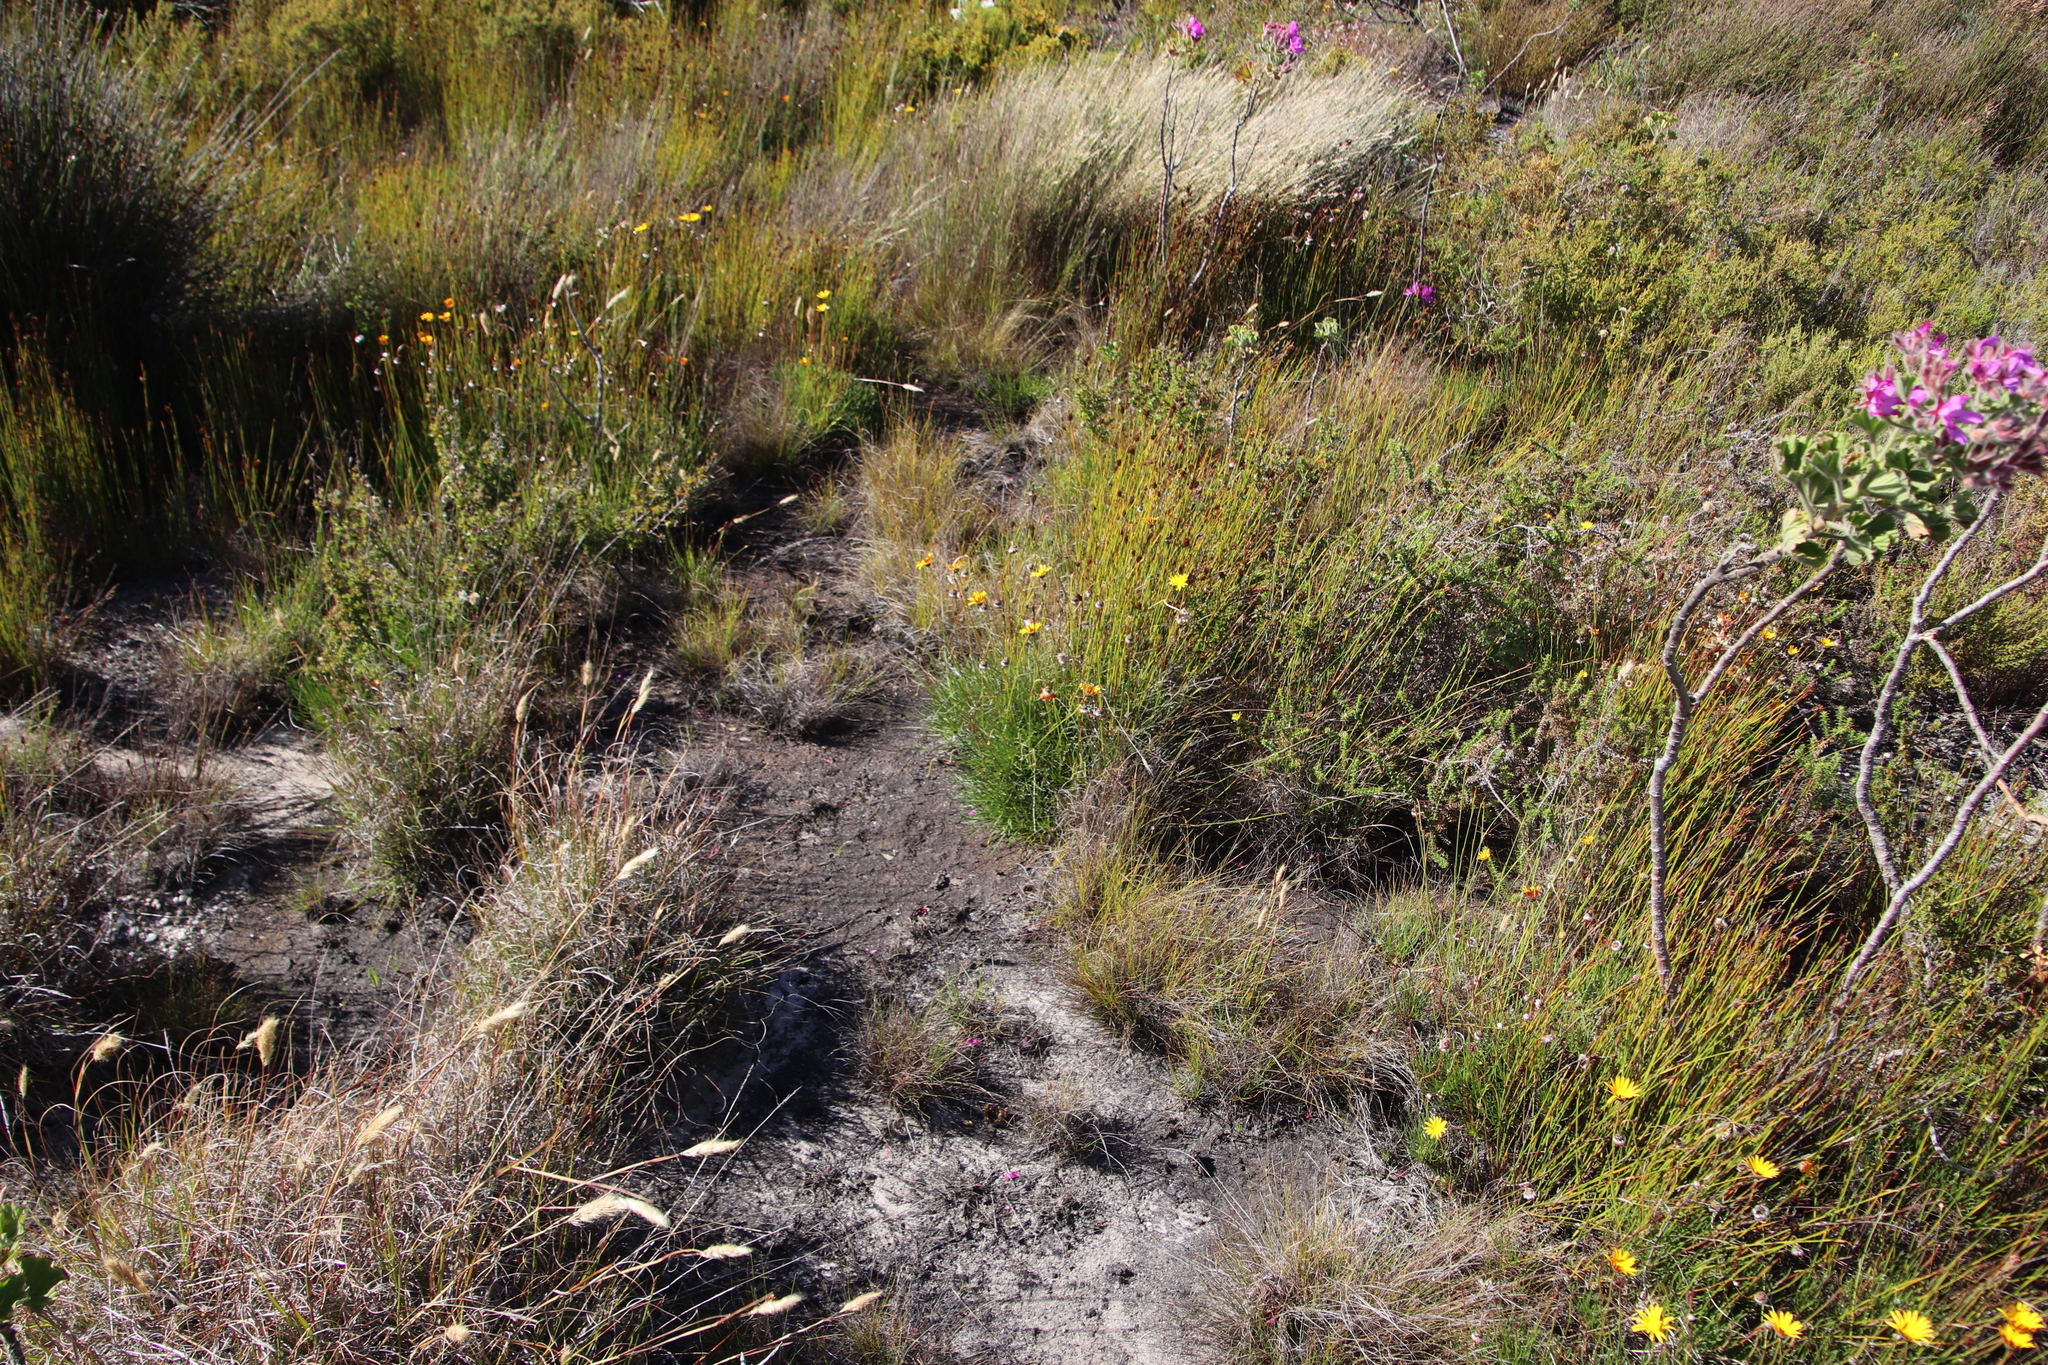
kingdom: Plantae
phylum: Tracheophyta
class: Magnoliopsida
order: Asterales
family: Asteraceae
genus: Ursinia
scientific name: Ursinia tenuifolia
